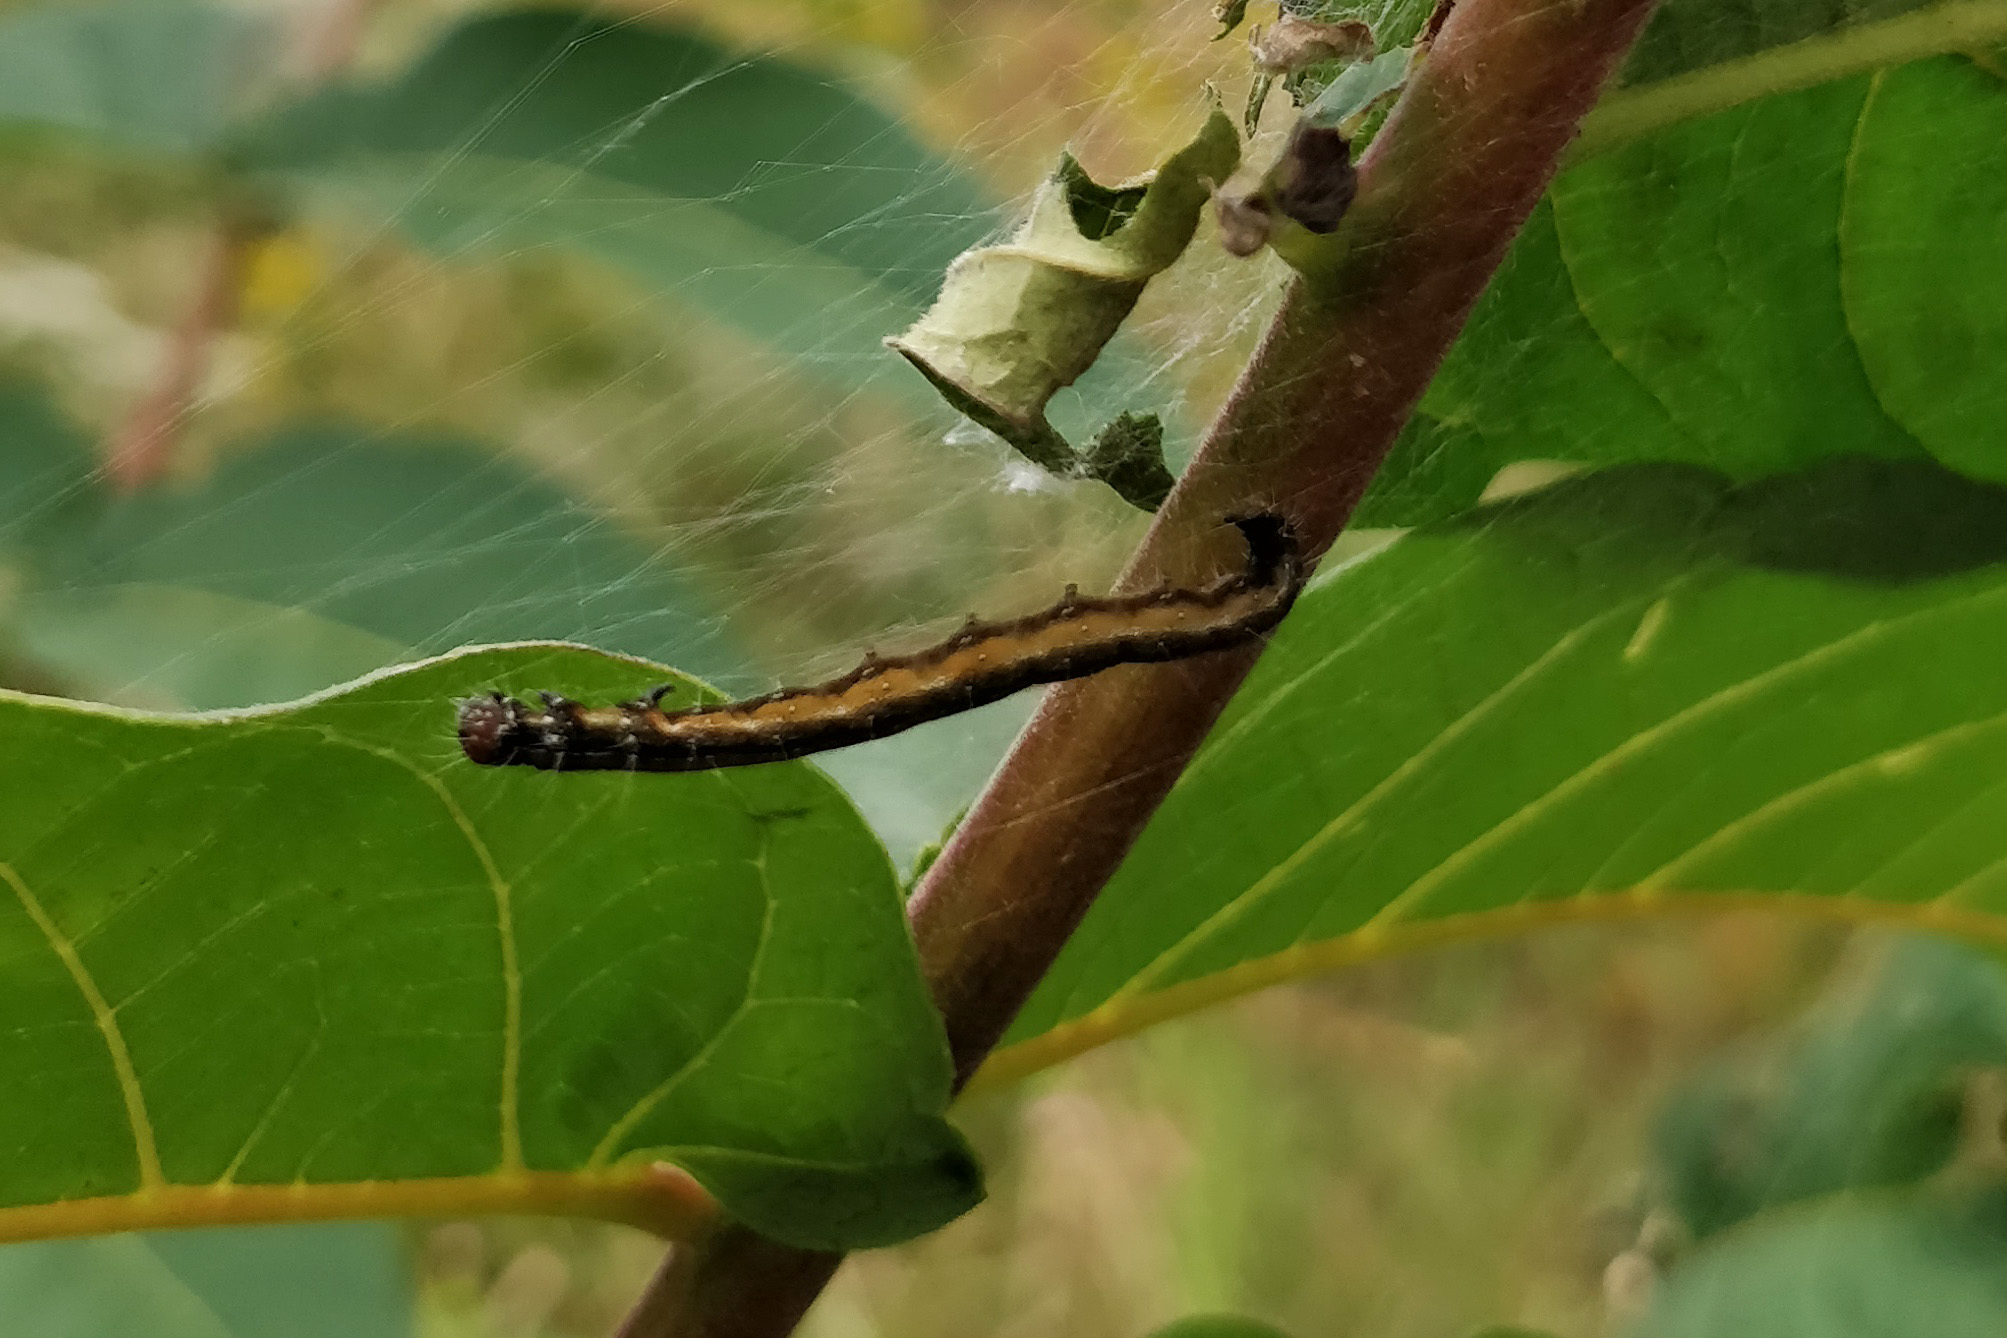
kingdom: Animalia
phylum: Arthropoda
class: Insecta
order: Lepidoptera
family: Attevidae
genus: Atteva
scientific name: Atteva punctella
